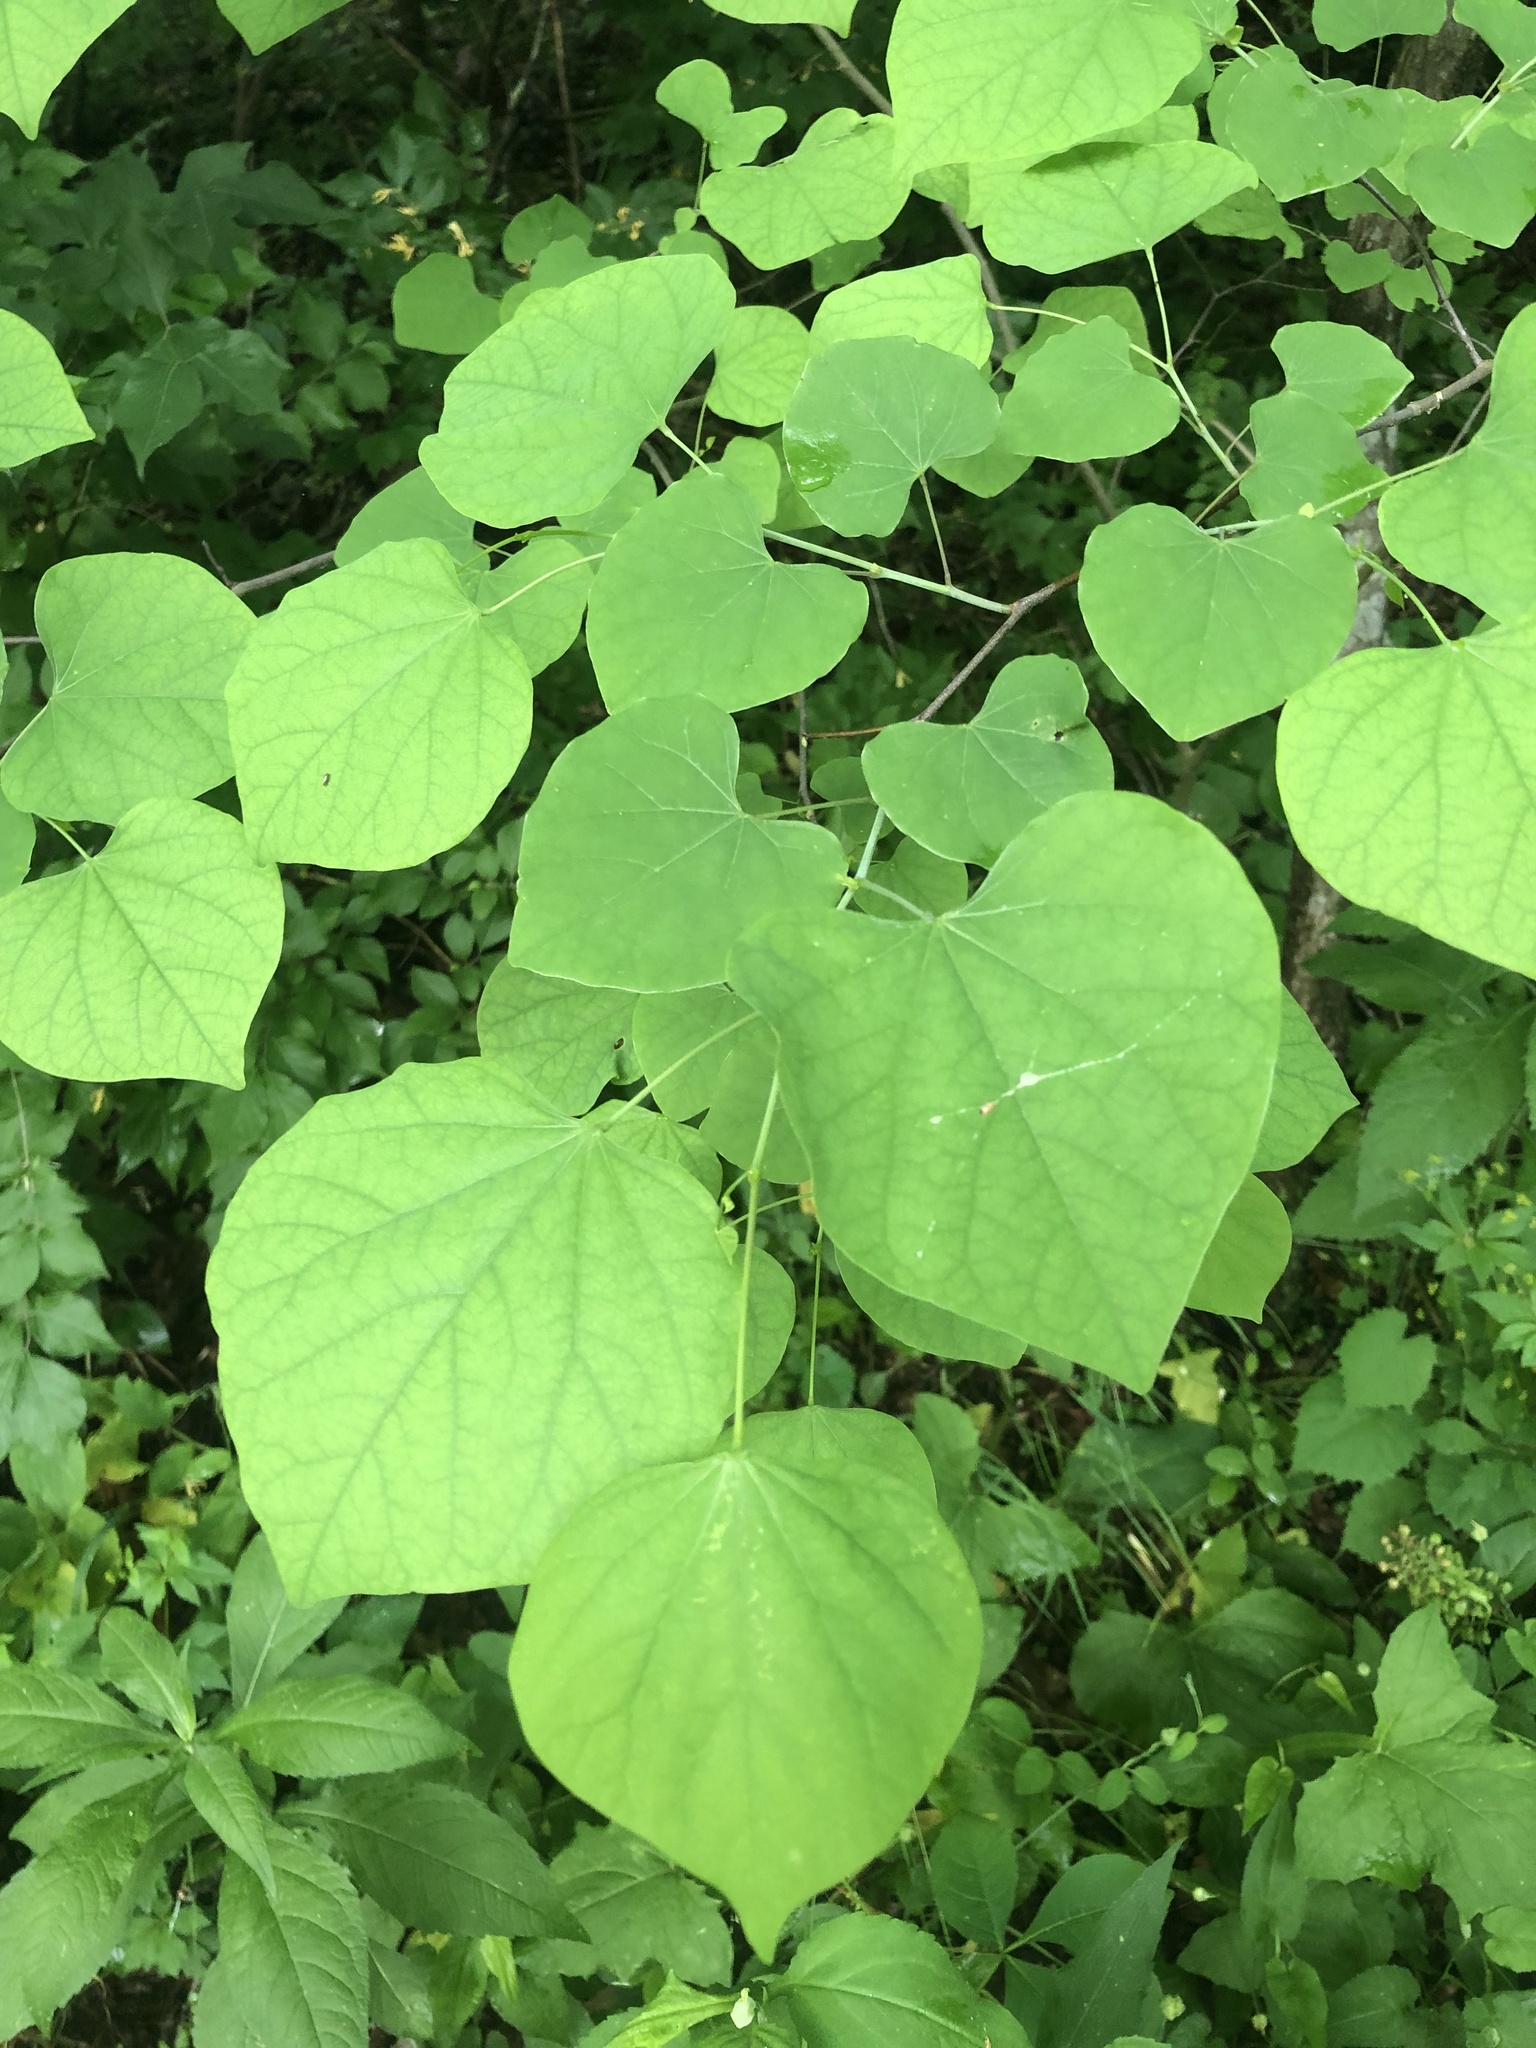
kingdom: Plantae
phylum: Tracheophyta
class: Magnoliopsida
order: Fabales
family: Fabaceae
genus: Cercis
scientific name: Cercis canadensis
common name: Eastern redbud
